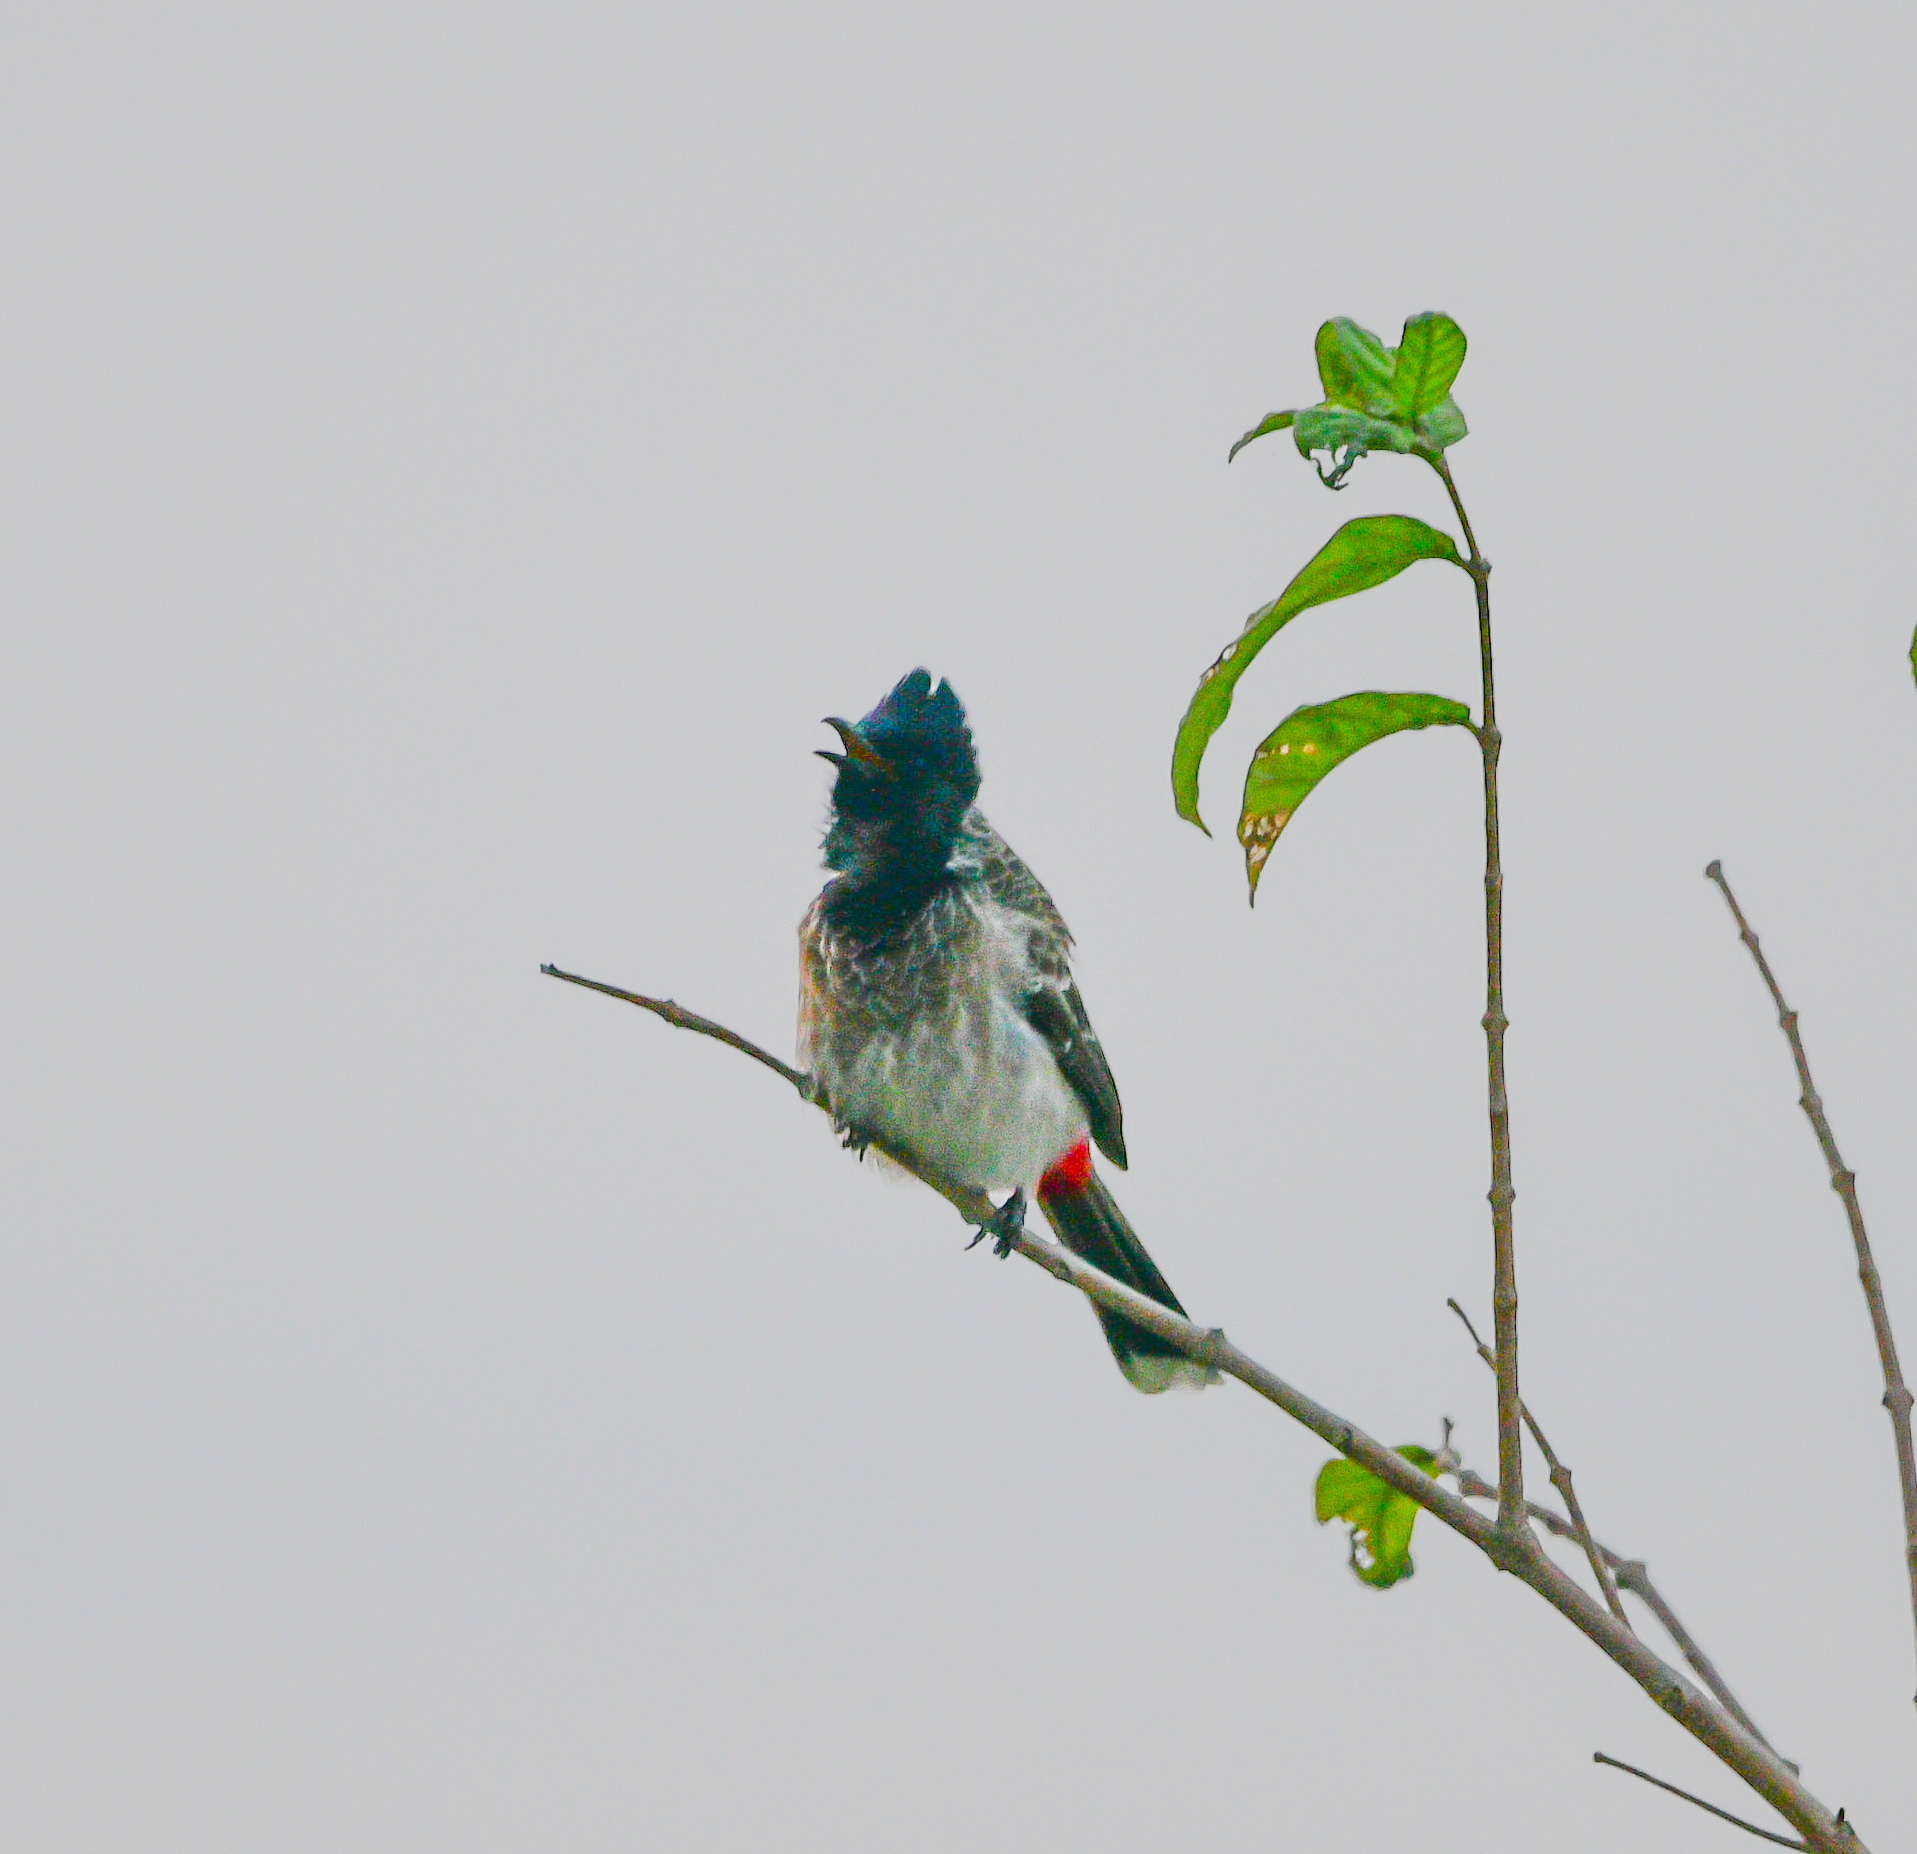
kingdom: Animalia
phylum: Chordata
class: Aves
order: Passeriformes
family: Pycnonotidae
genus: Pycnonotus
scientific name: Pycnonotus cafer
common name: Red-vented bulbul
